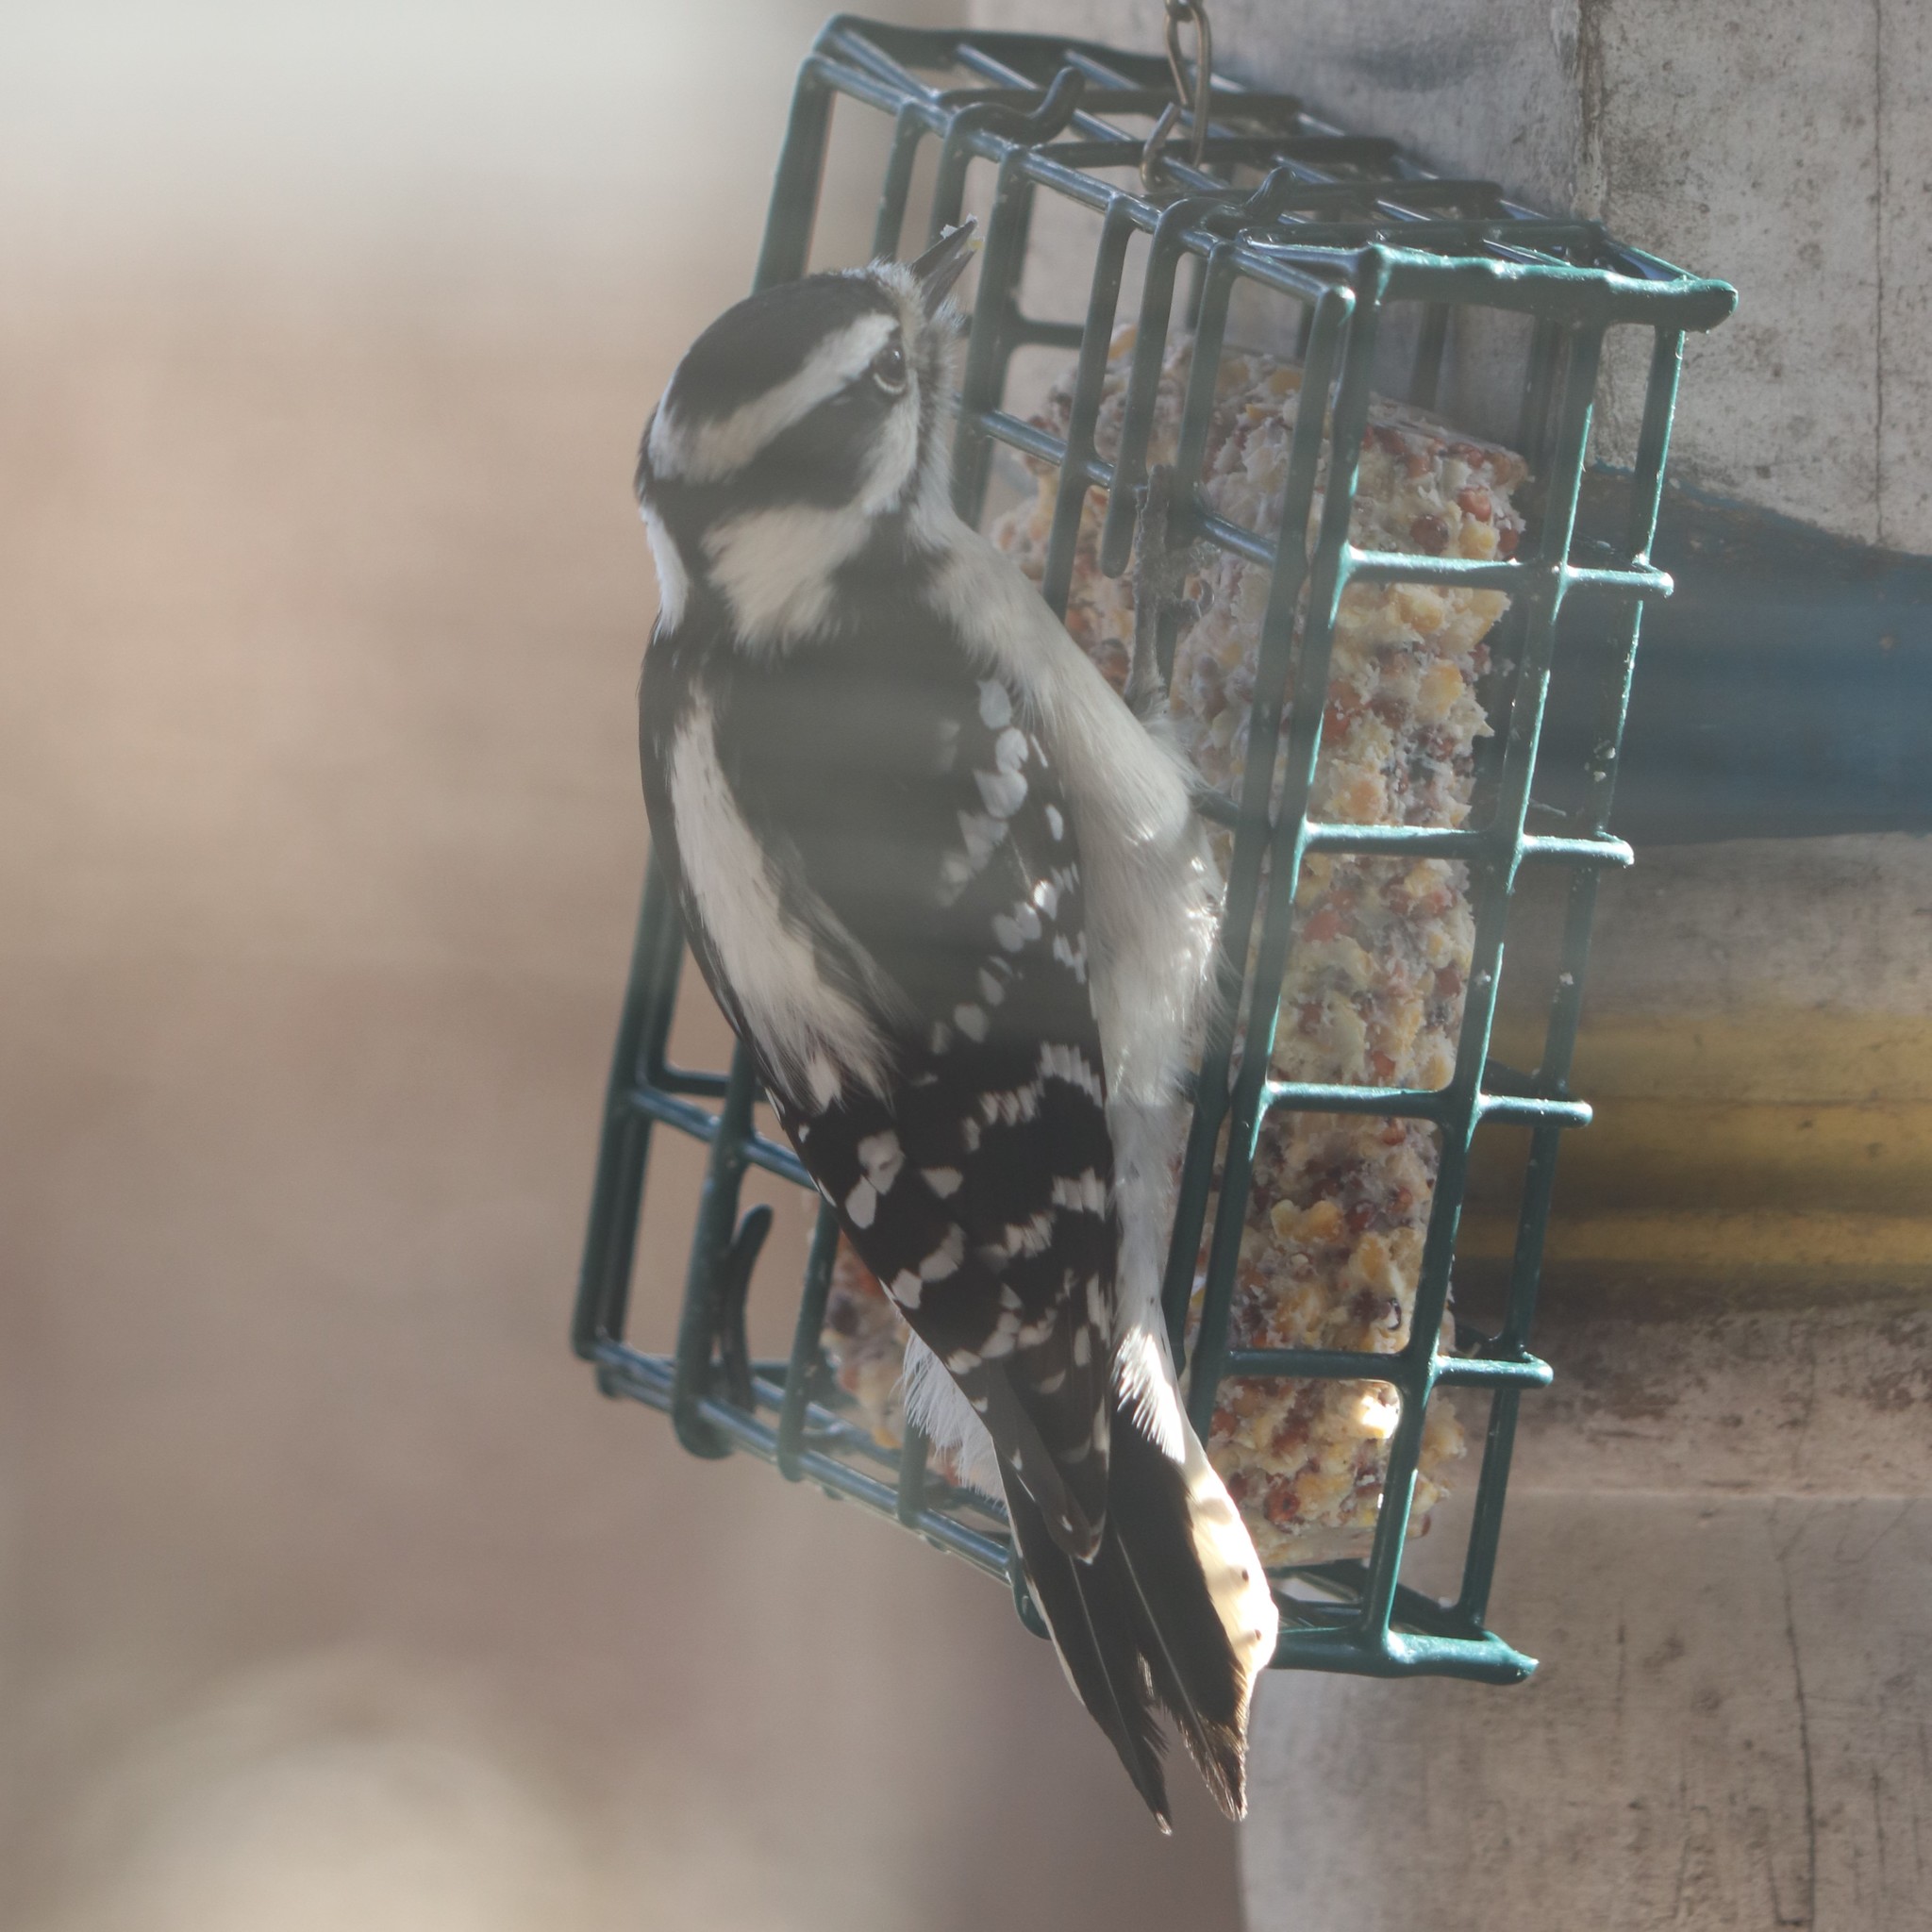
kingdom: Animalia
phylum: Chordata
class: Aves
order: Piciformes
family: Picidae
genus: Dryobates
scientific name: Dryobates pubescens
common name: Downy woodpecker
